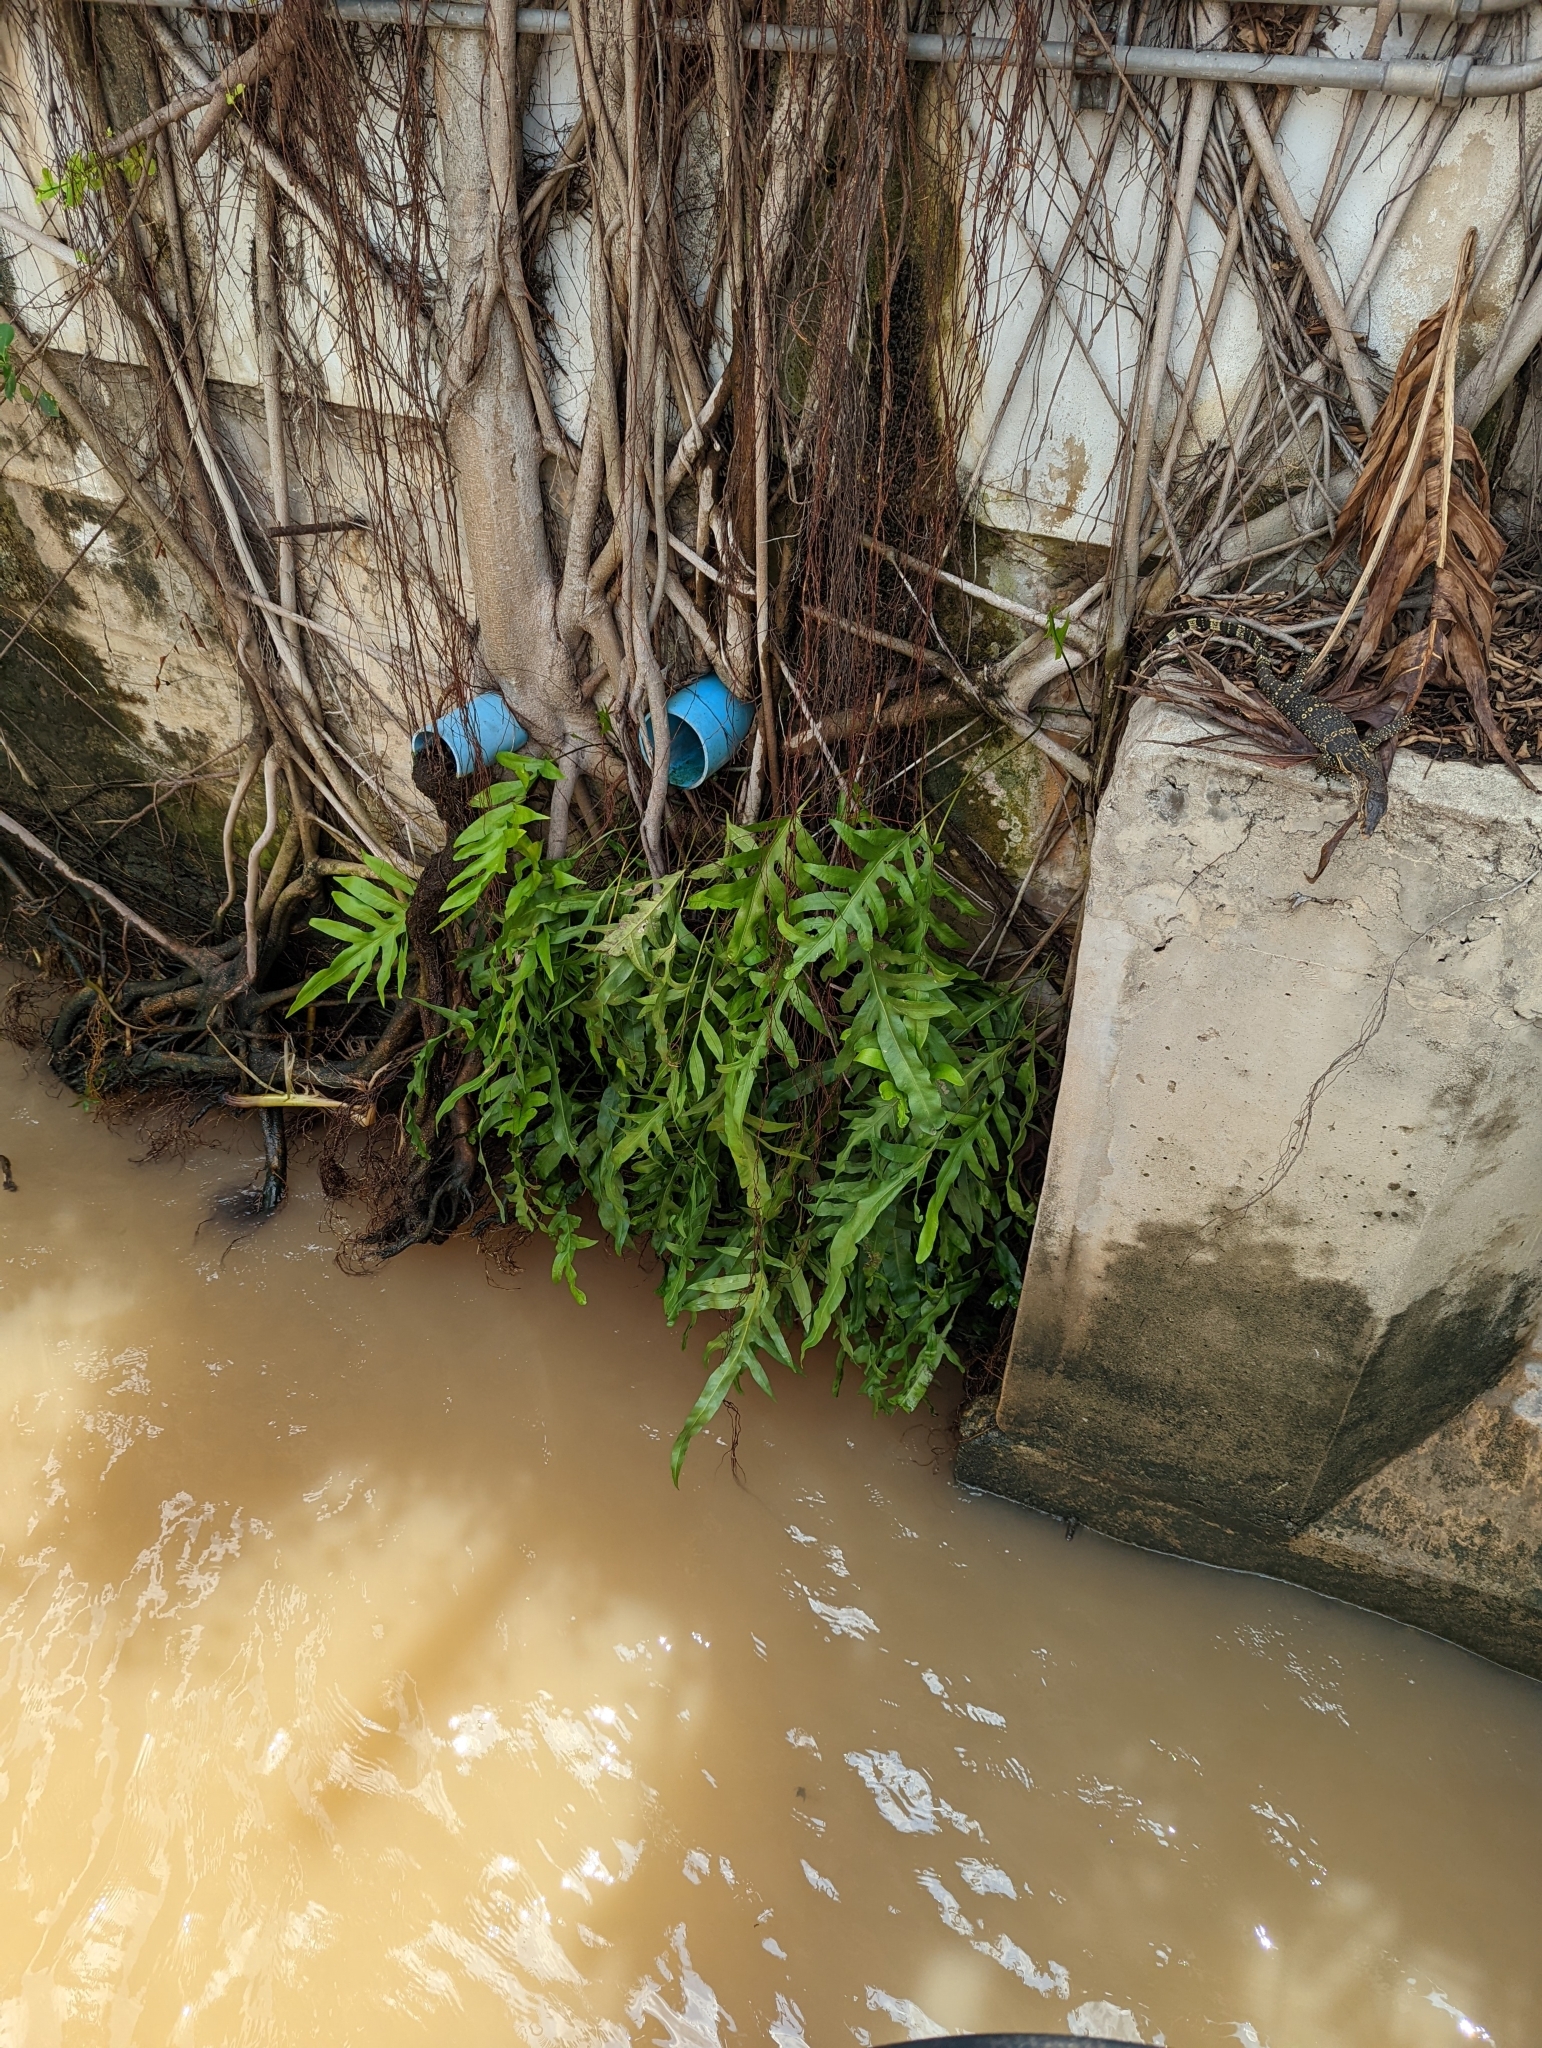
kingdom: Plantae
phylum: Tracheophyta
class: Polypodiopsida
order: Polypodiales
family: Polypodiaceae
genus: Microsorum
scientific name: Microsorum scolopendria
